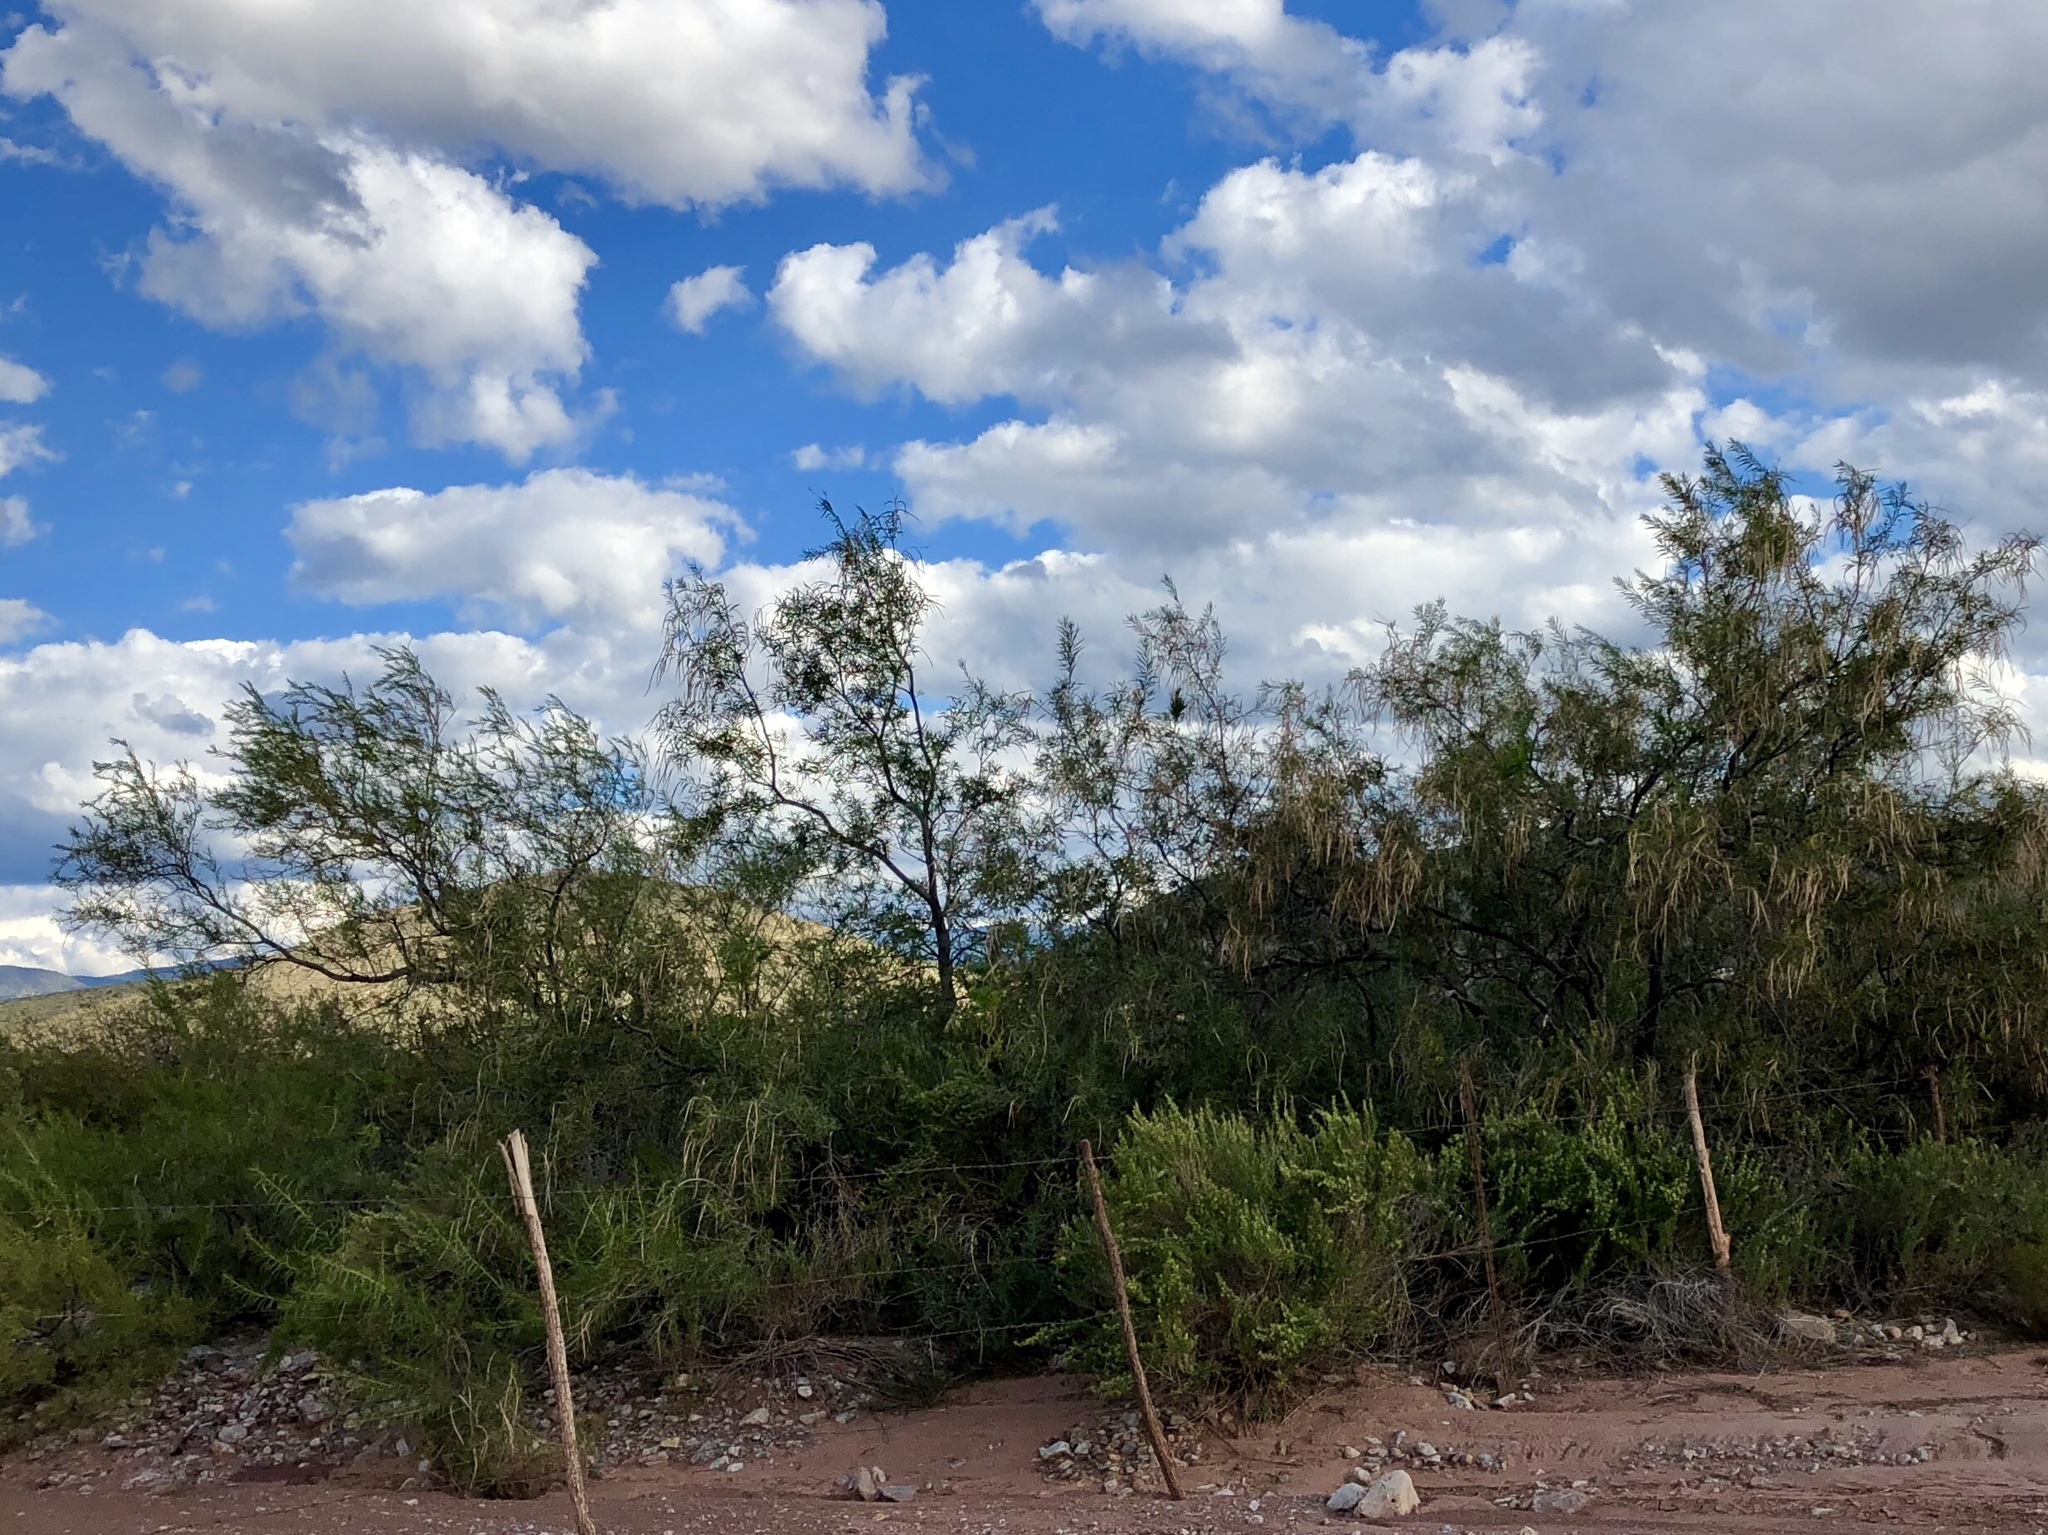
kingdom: Plantae
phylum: Tracheophyta
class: Magnoliopsida
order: Lamiales
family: Bignoniaceae
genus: Chilopsis
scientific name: Chilopsis linearis
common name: Desert-willow
